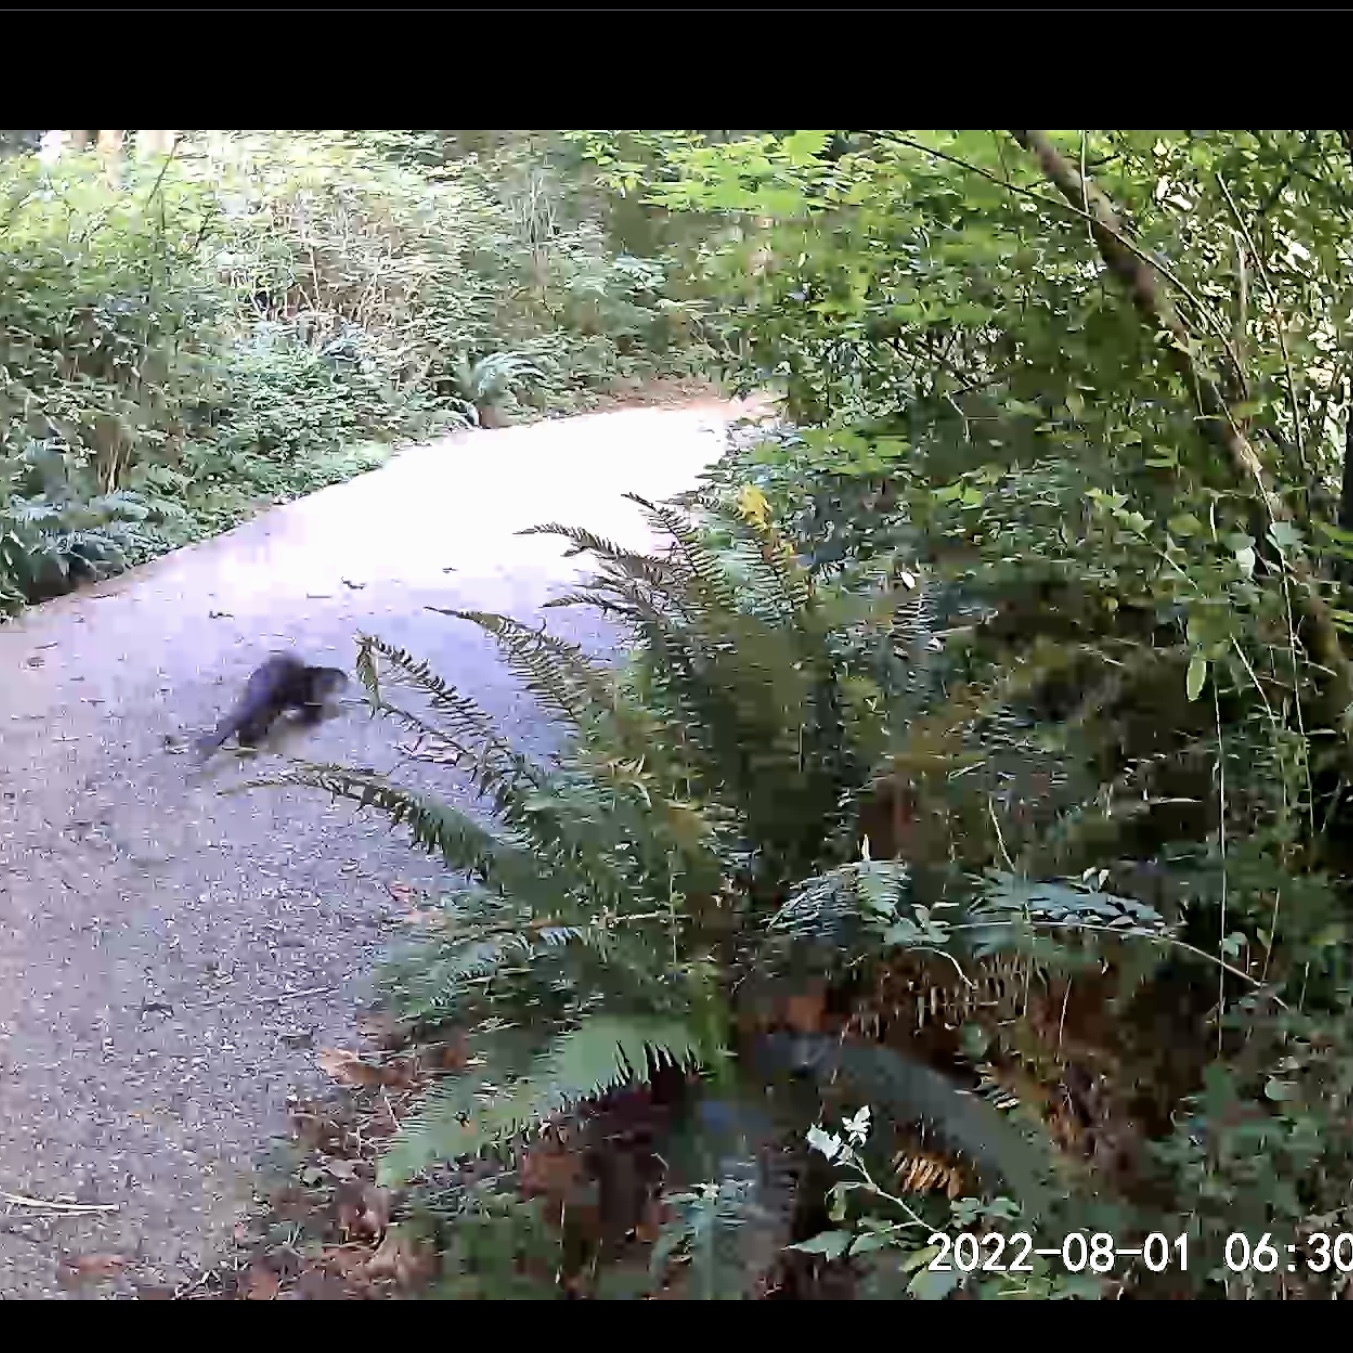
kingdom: Animalia
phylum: Chordata
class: Mammalia
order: Carnivora
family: Mustelidae
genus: Lontra
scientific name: Lontra canadensis
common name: North american river otter
